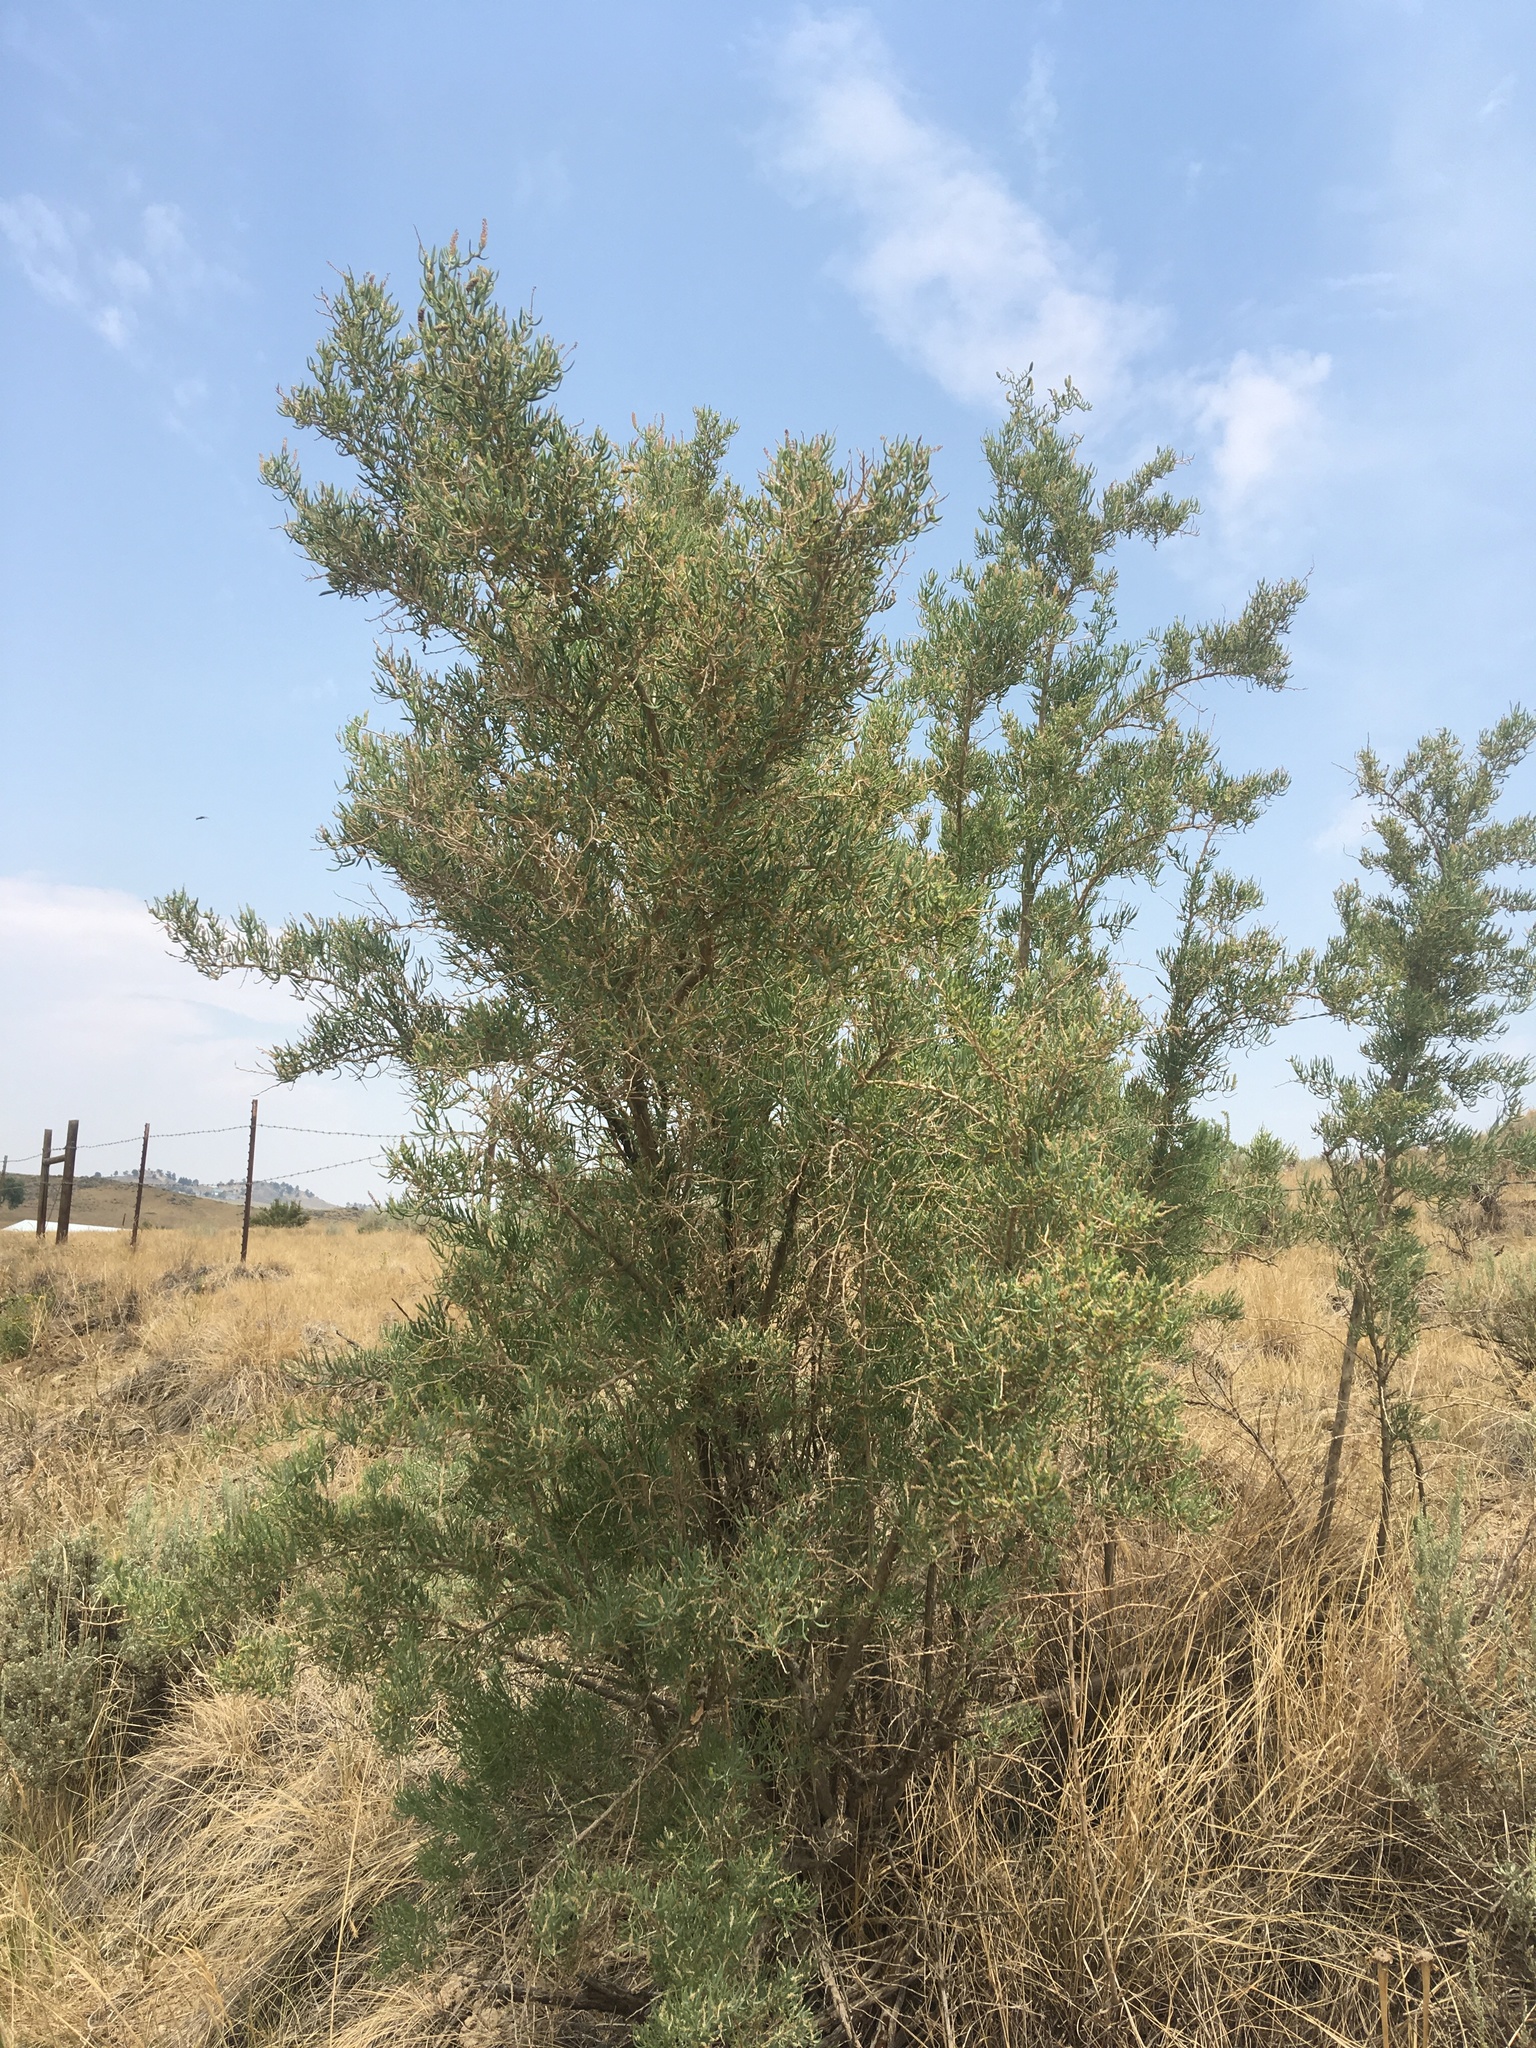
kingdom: Plantae
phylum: Tracheophyta
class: Magnoliopsida
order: Caryophyllales
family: Sarcobataceae
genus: Sarcobatus
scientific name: Sarcobatus vermiculatus
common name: Greasewood
